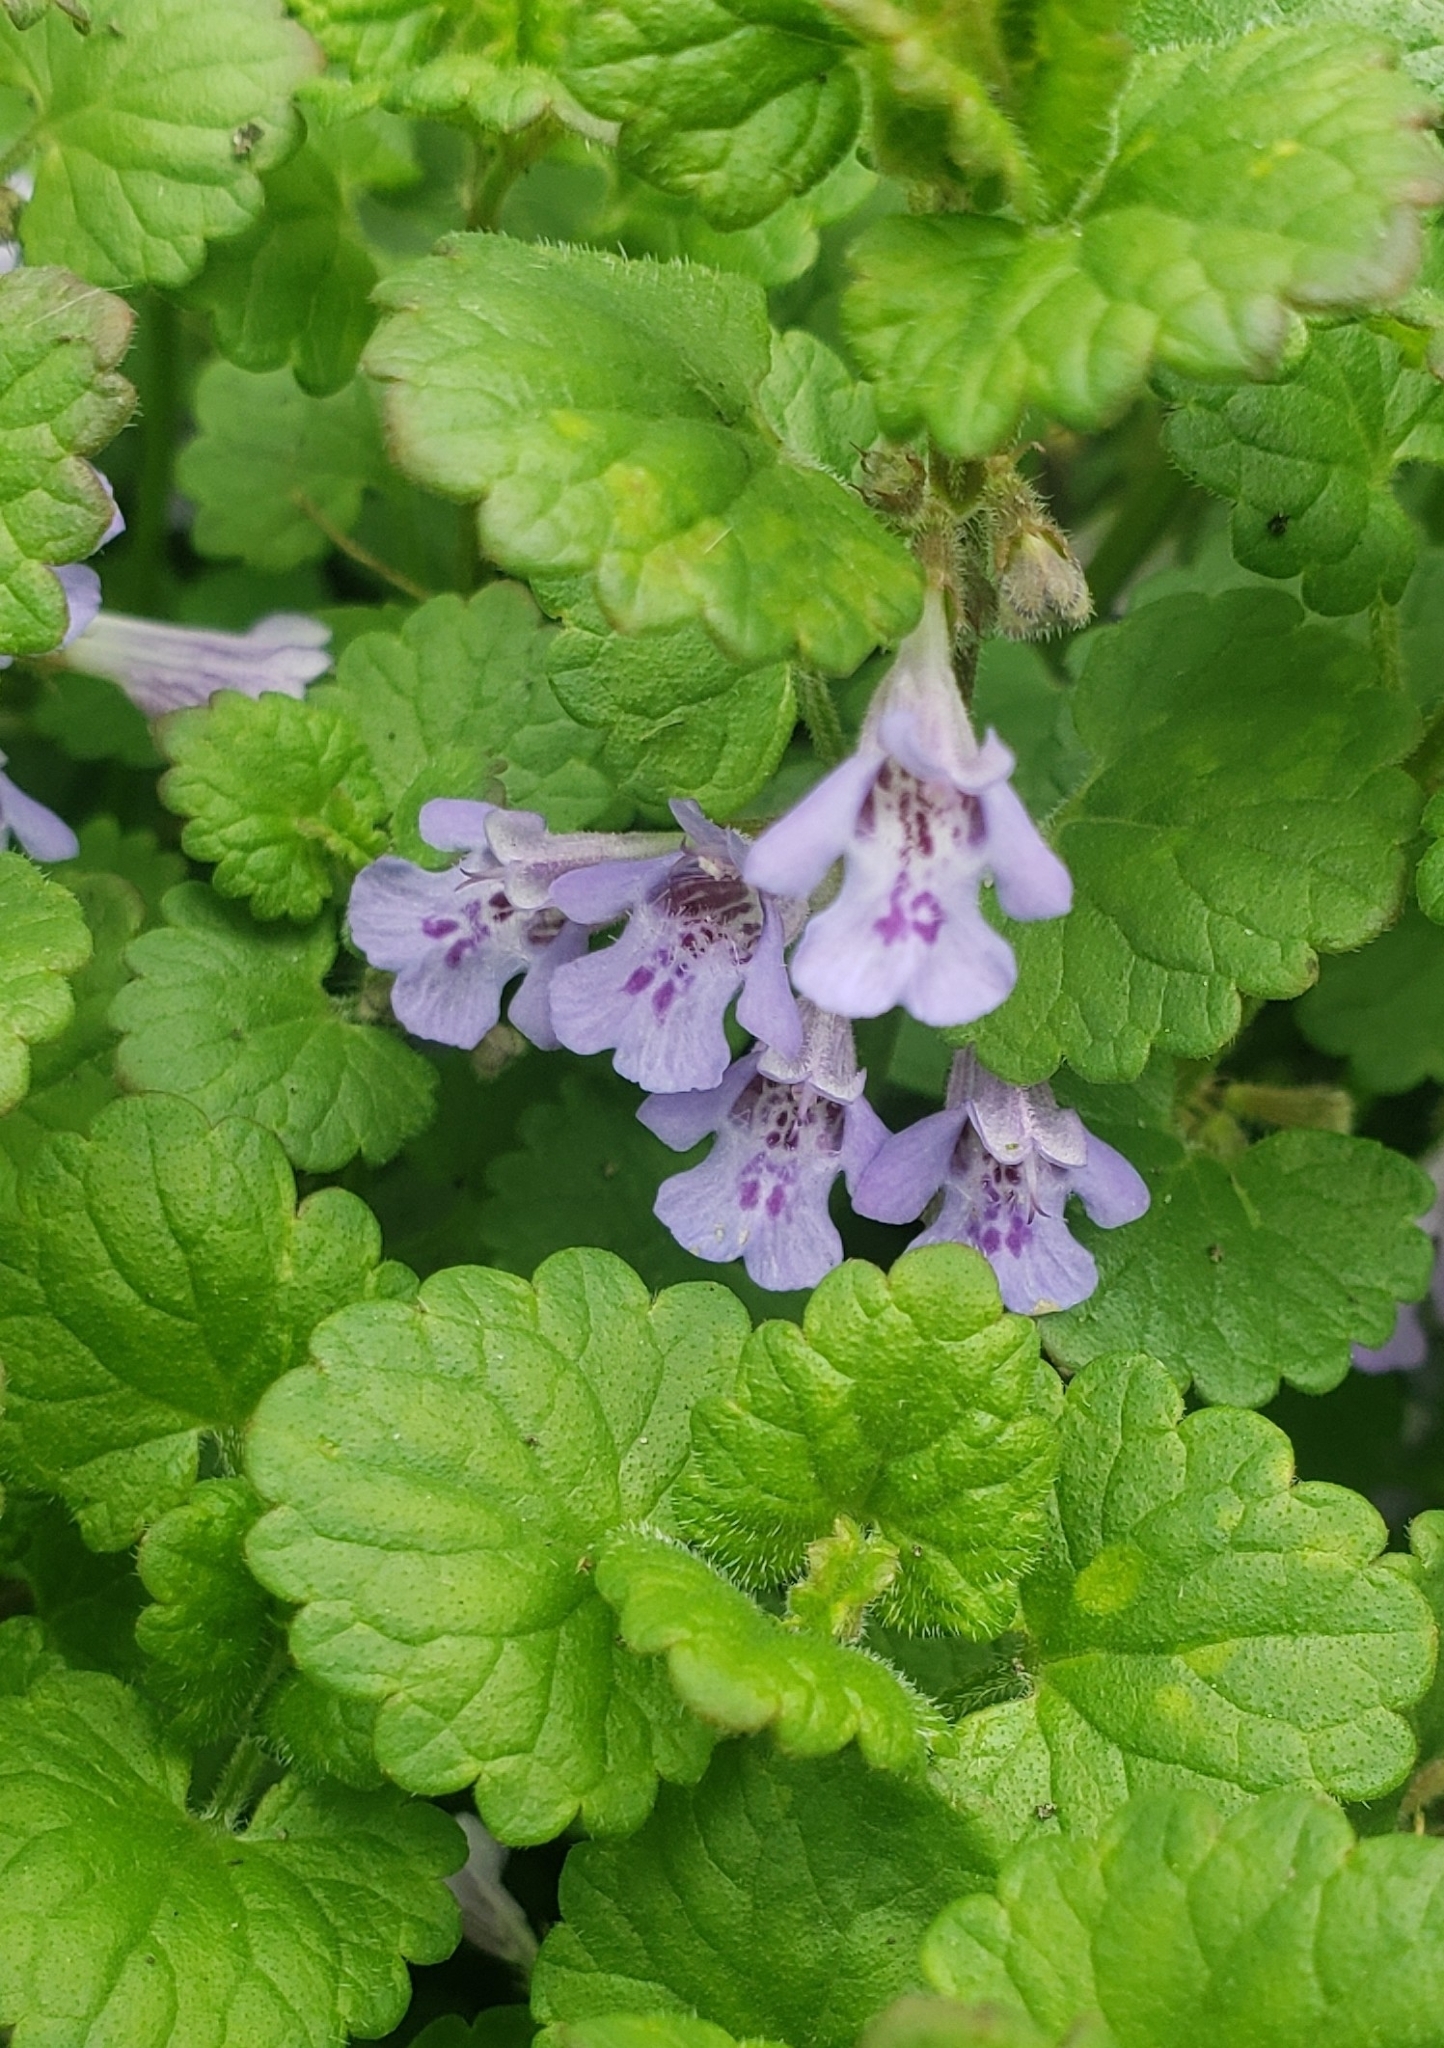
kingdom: Plantae
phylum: Tracheophyta
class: Magnoliopsida
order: Lamiales
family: Lamiaceae
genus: Glechoma
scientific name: Glechoma hederacea
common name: Ground ivy
